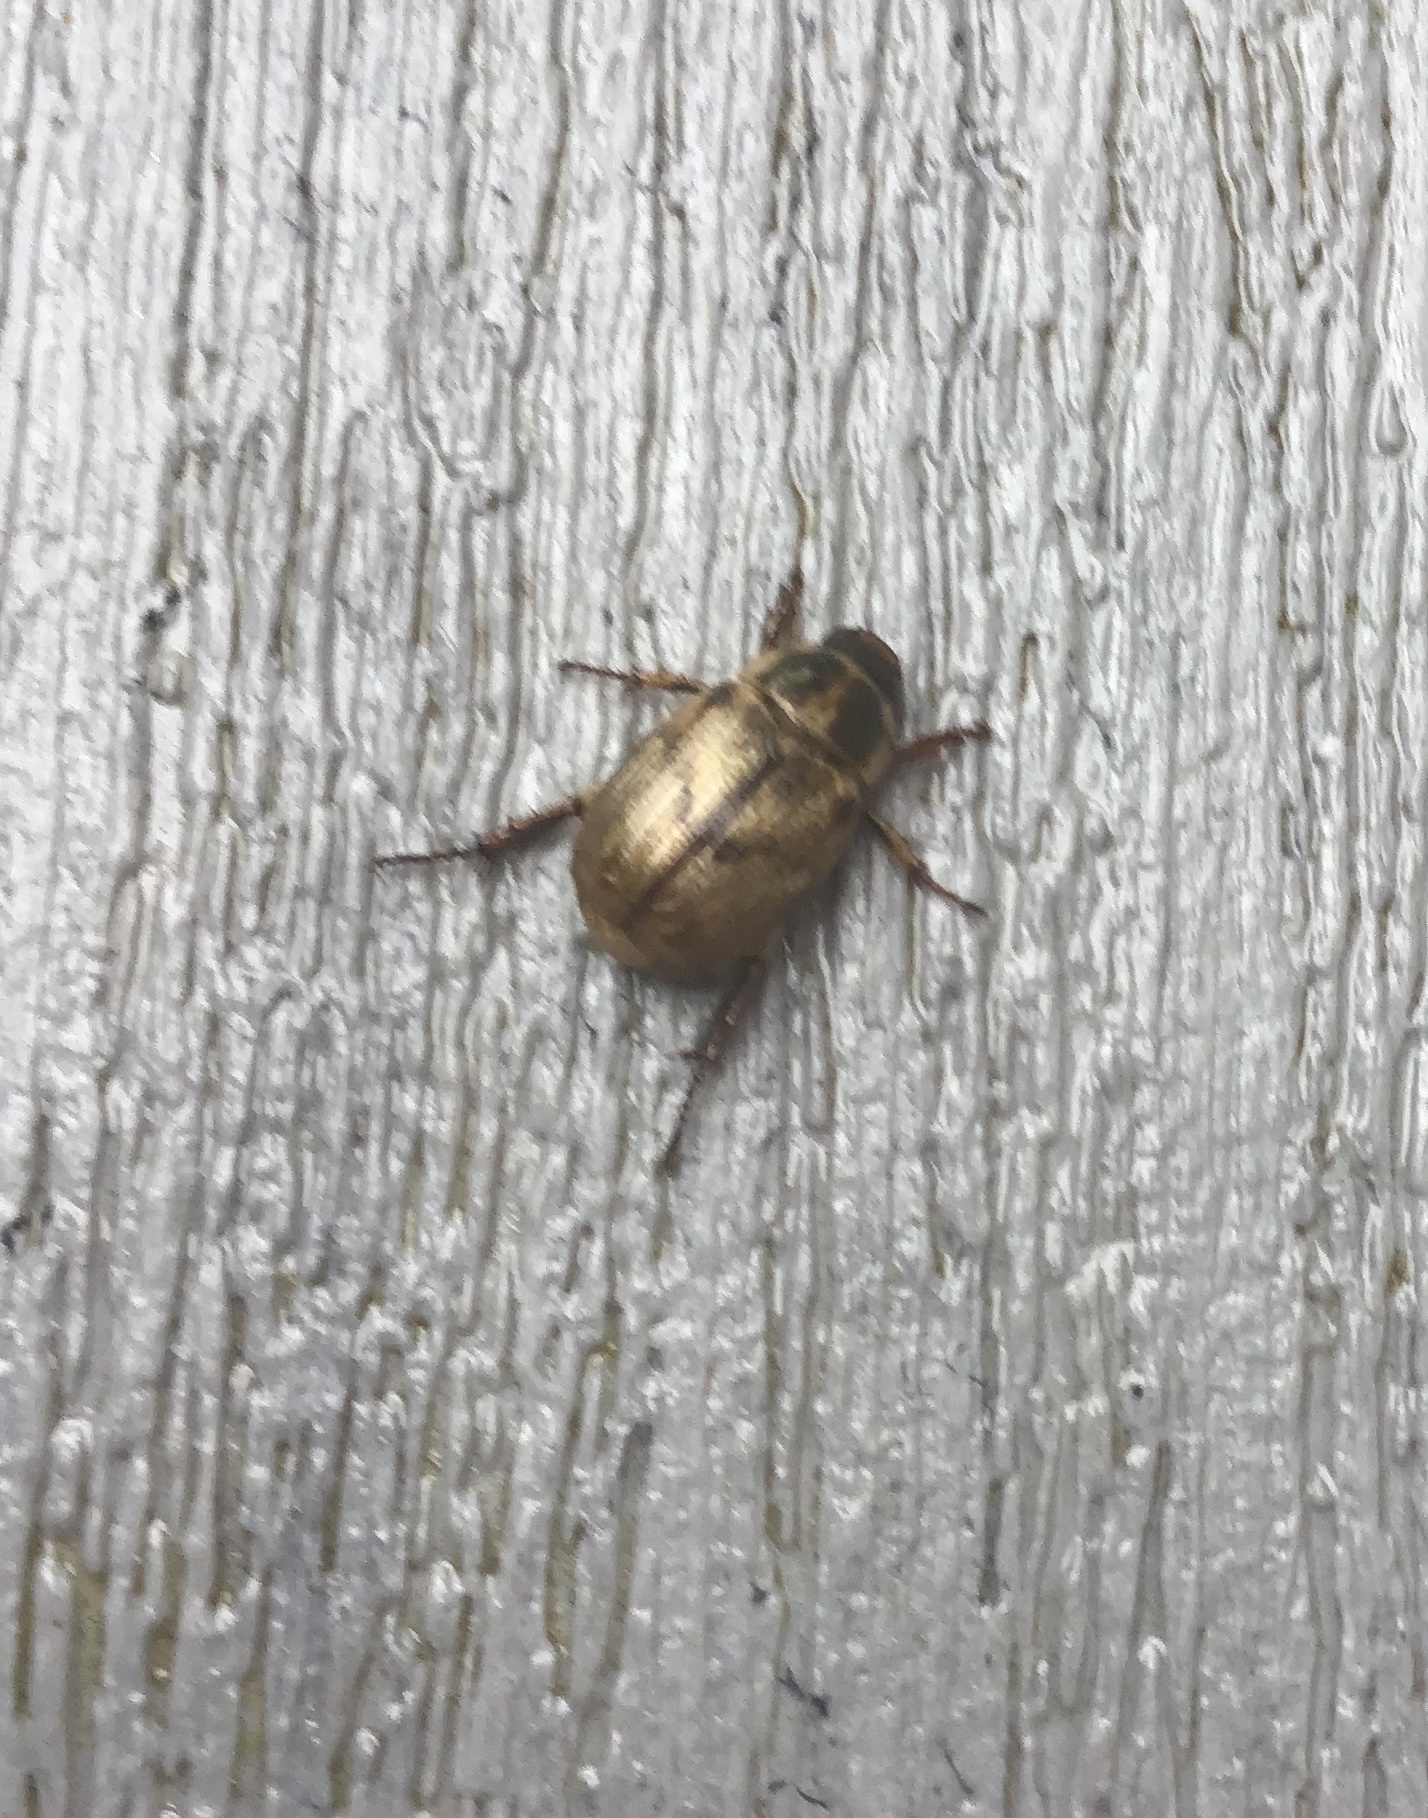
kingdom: Animalia
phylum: Arthropoda
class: Insecta
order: Coleoptera
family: Scarabaeidae
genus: Exomala
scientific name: Exomala orientalis
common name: Oriental beetle
